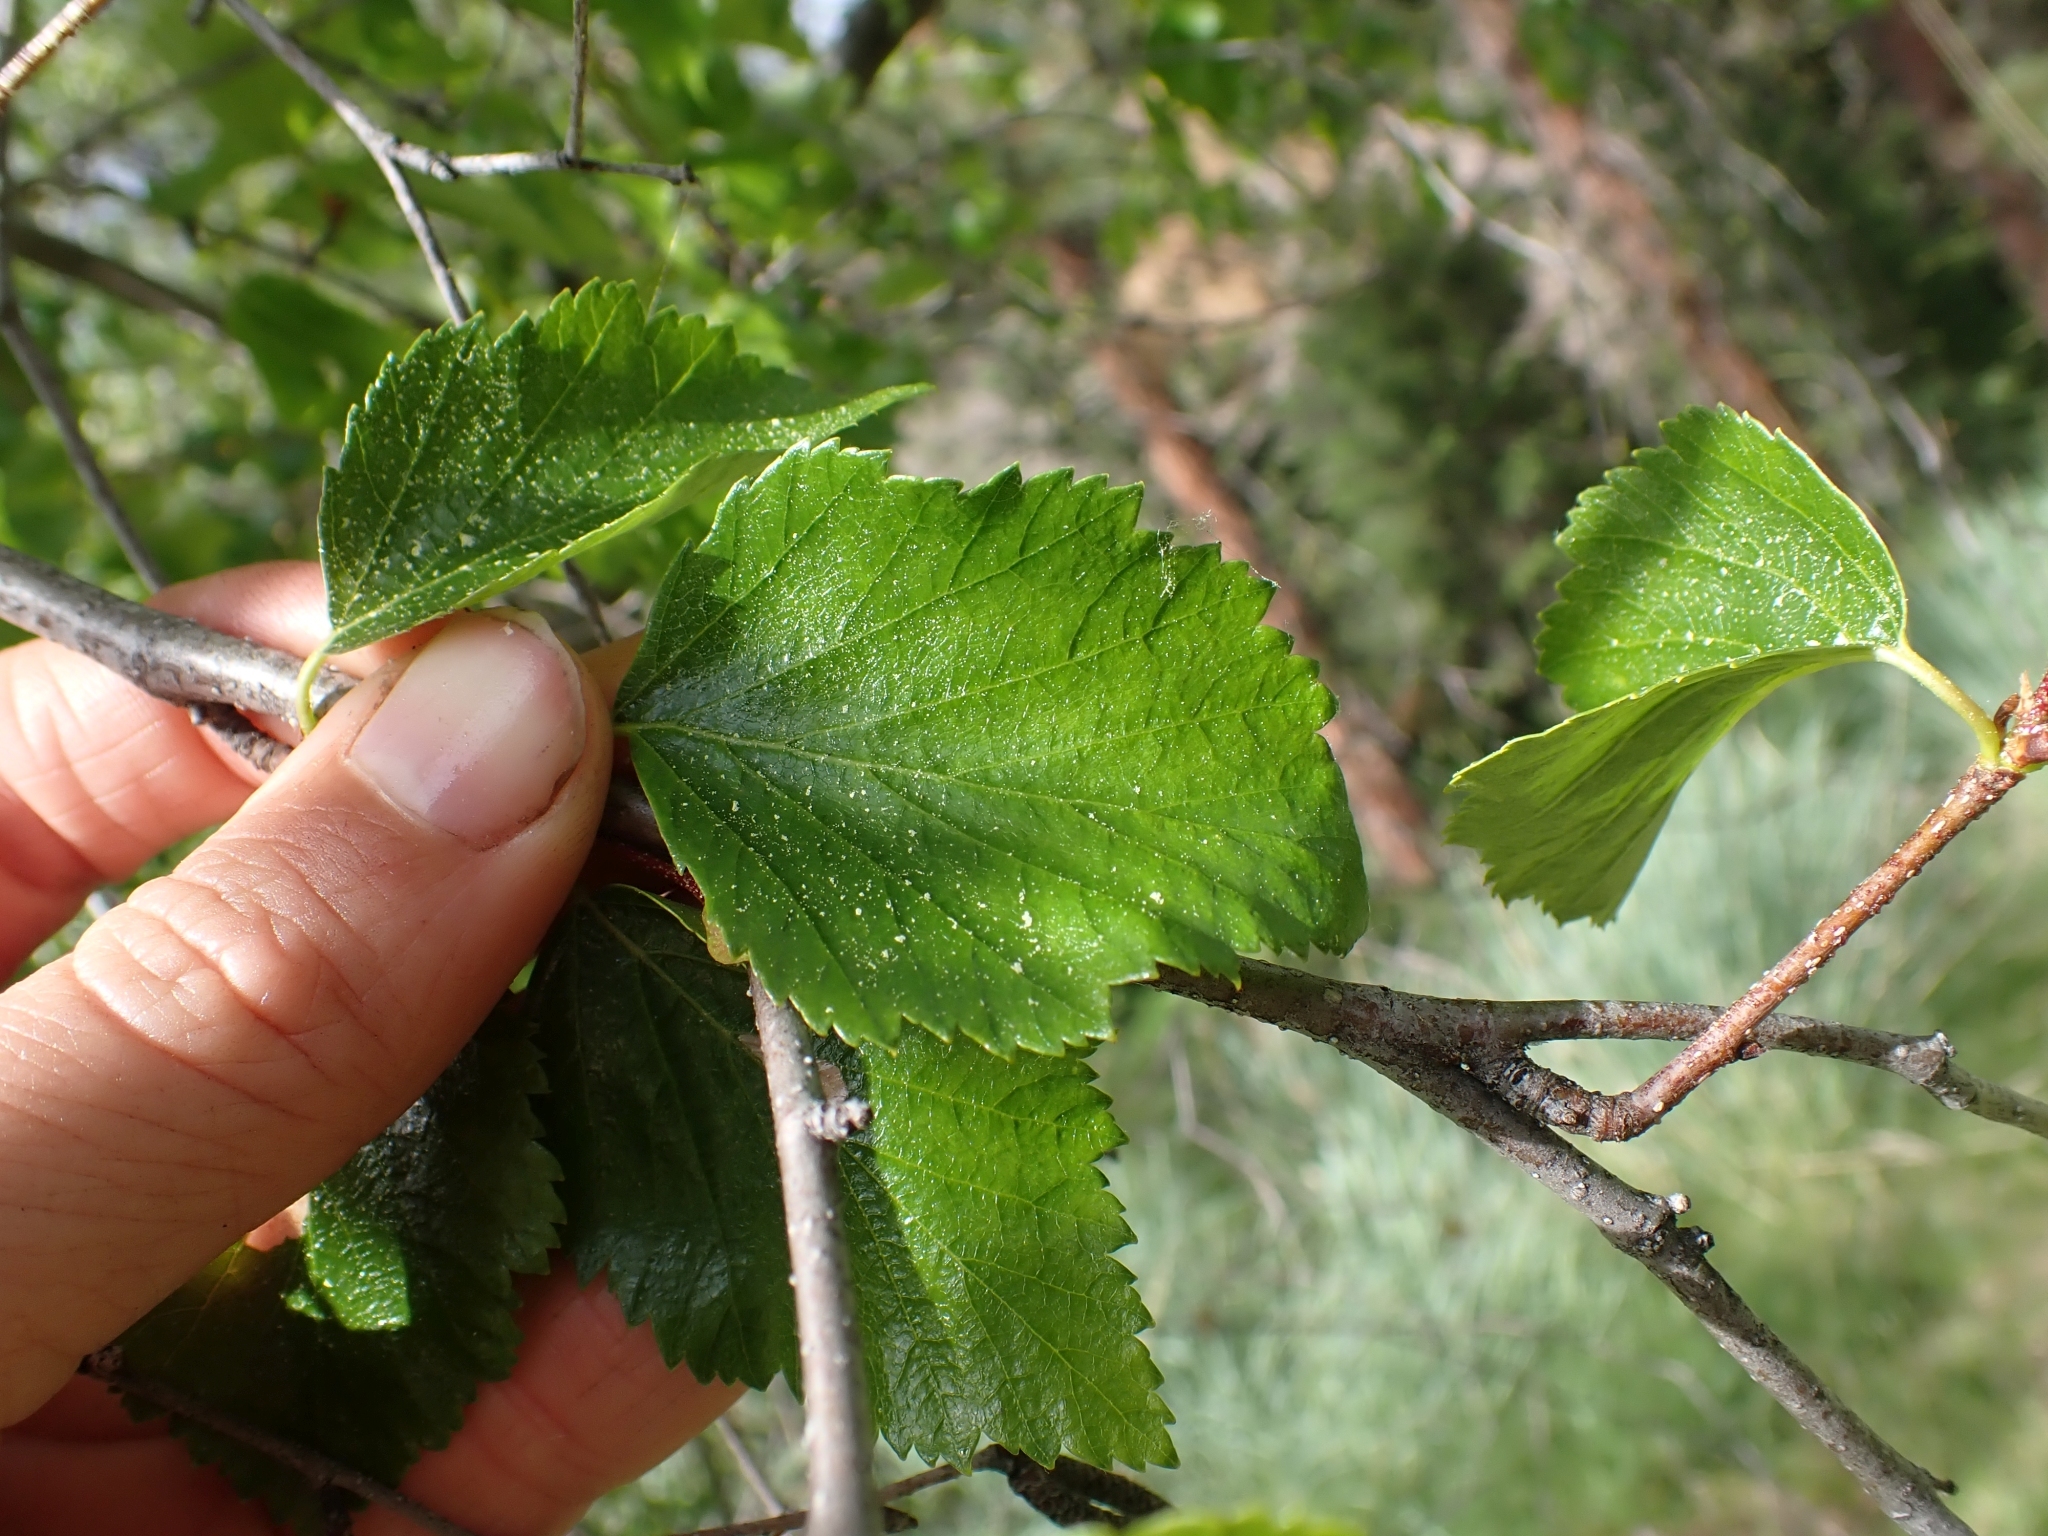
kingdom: Plantae
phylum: Tracheophyta
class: Magnoliopsida
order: Fagales
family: Betulaceae
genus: Betula
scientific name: Betula occidentalis
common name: River birch
